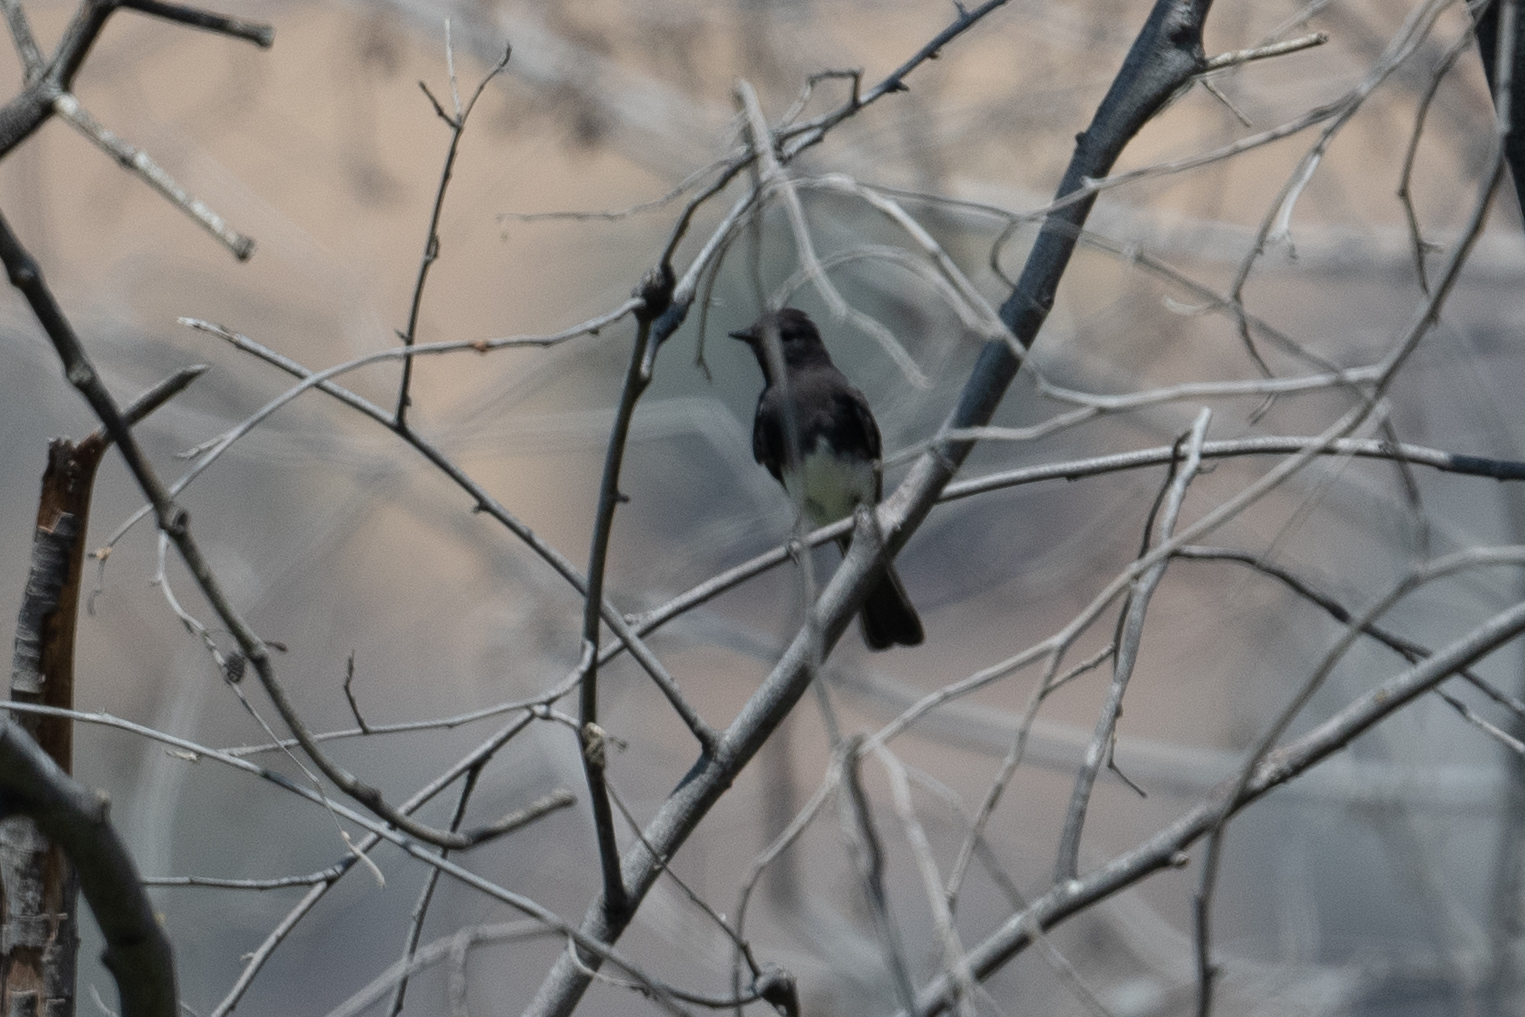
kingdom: Animalia
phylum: Chordata
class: Aves
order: Passeriformes
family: Tyrannidae
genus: Sayornis
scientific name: Sayornis nigricans
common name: Black phoebe
